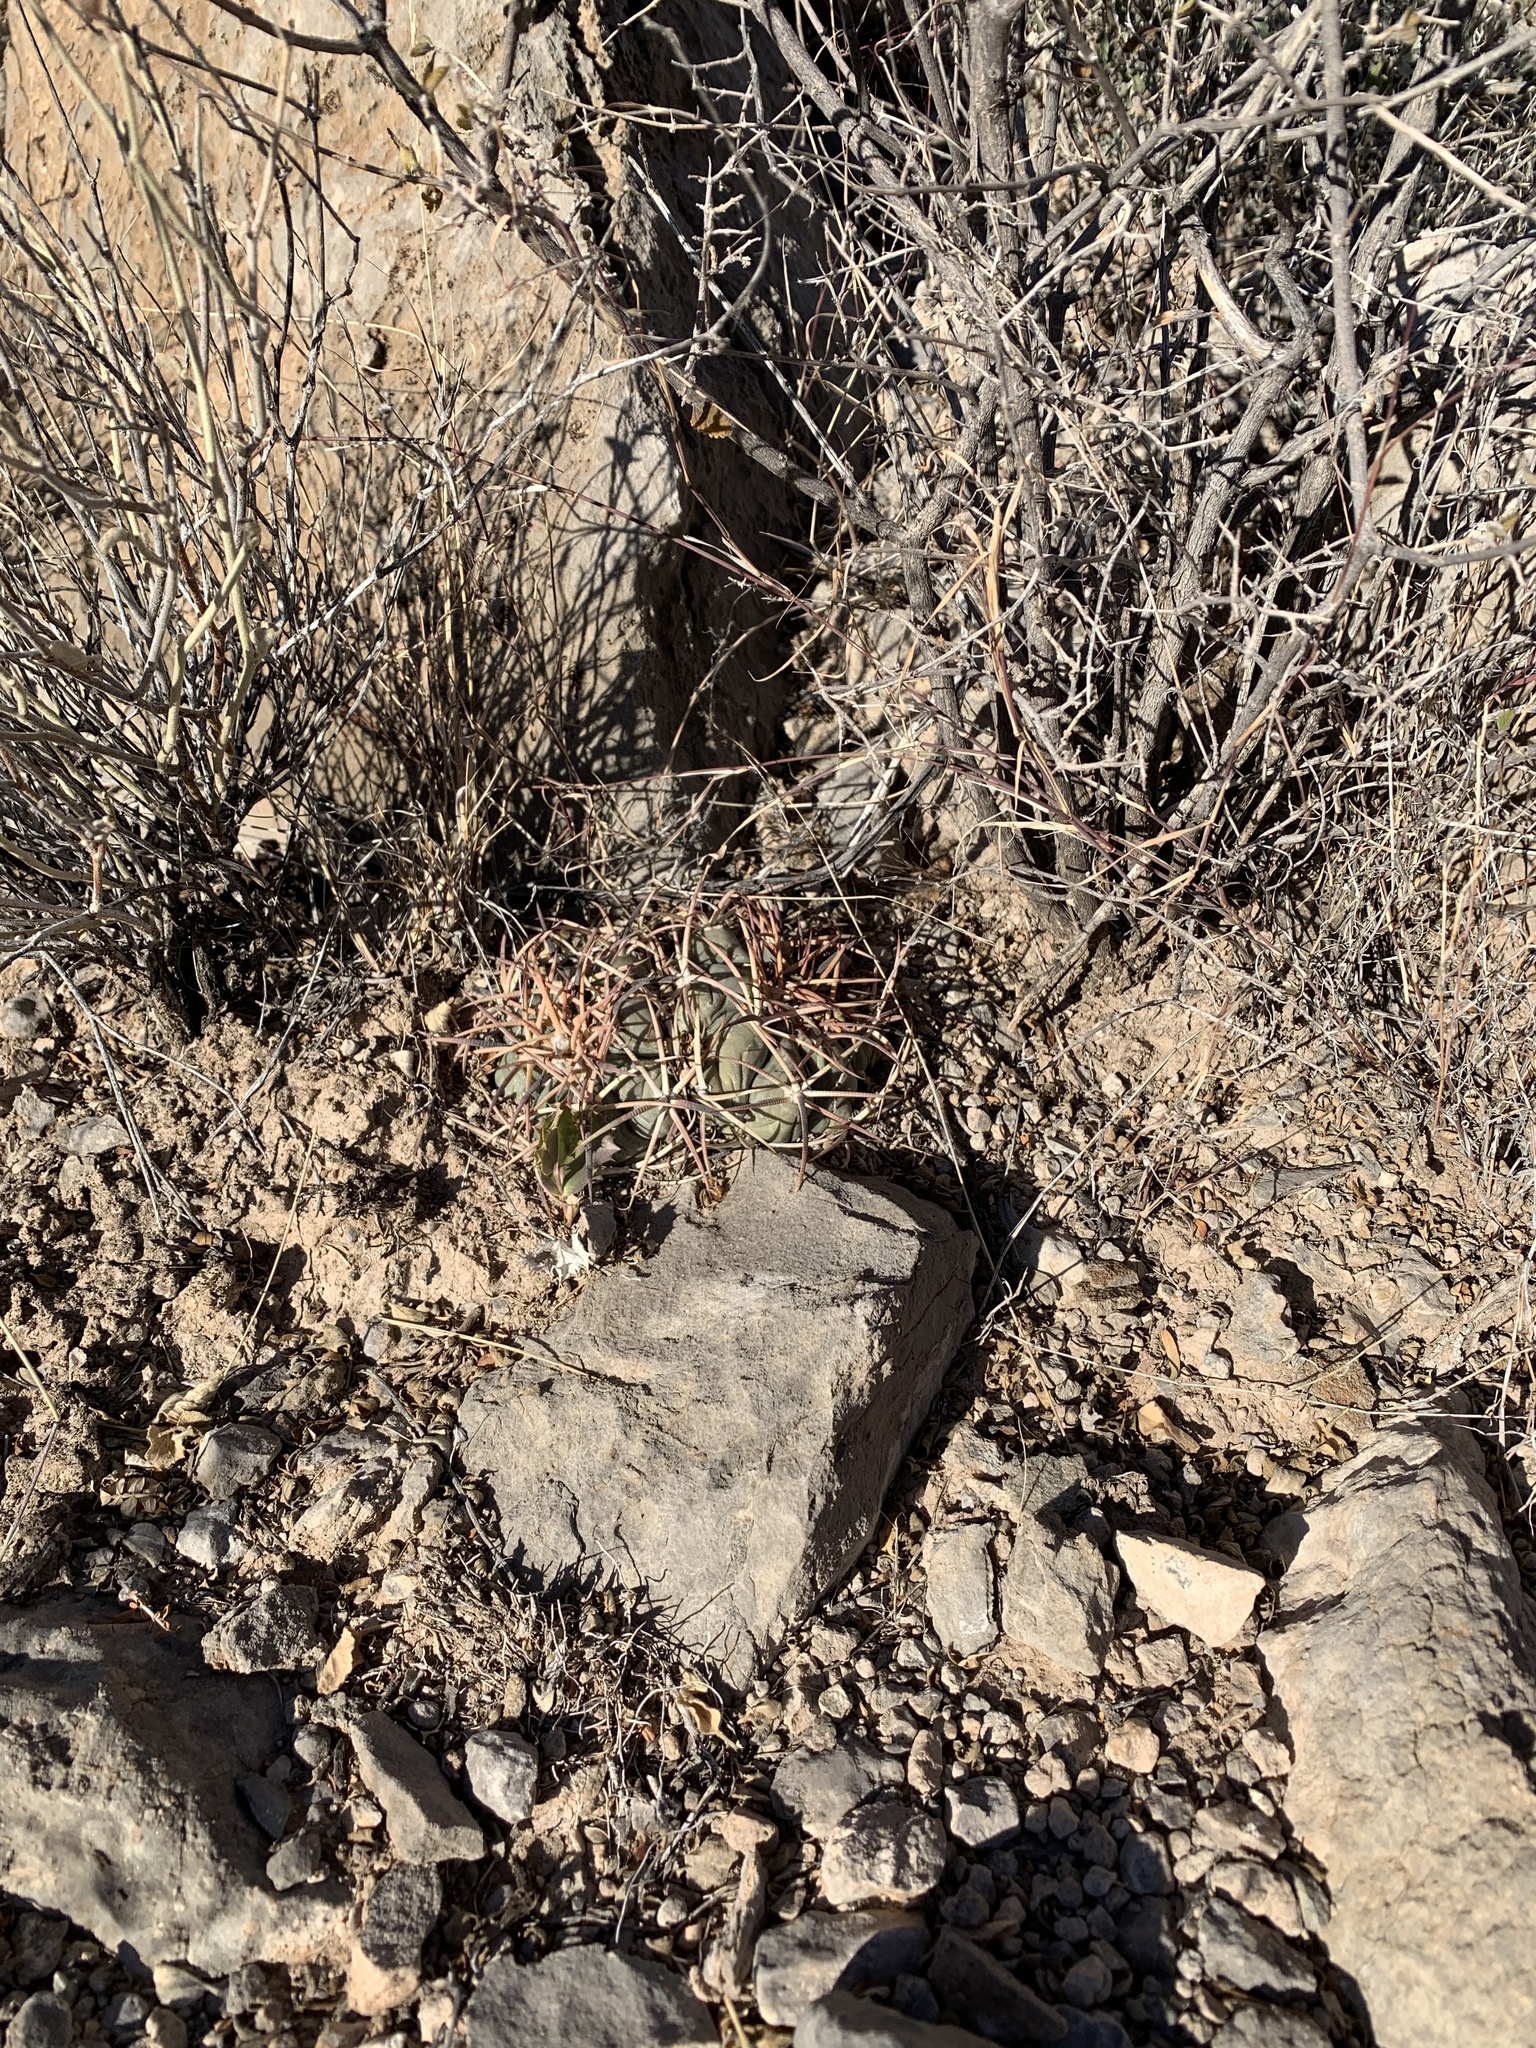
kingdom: Plantae
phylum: Tracheophyta
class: Magnoliopsida
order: Caryophyllales
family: Cactaceae
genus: Echinocactus
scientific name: Echinocactus horizonthalonius
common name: Devilshead
